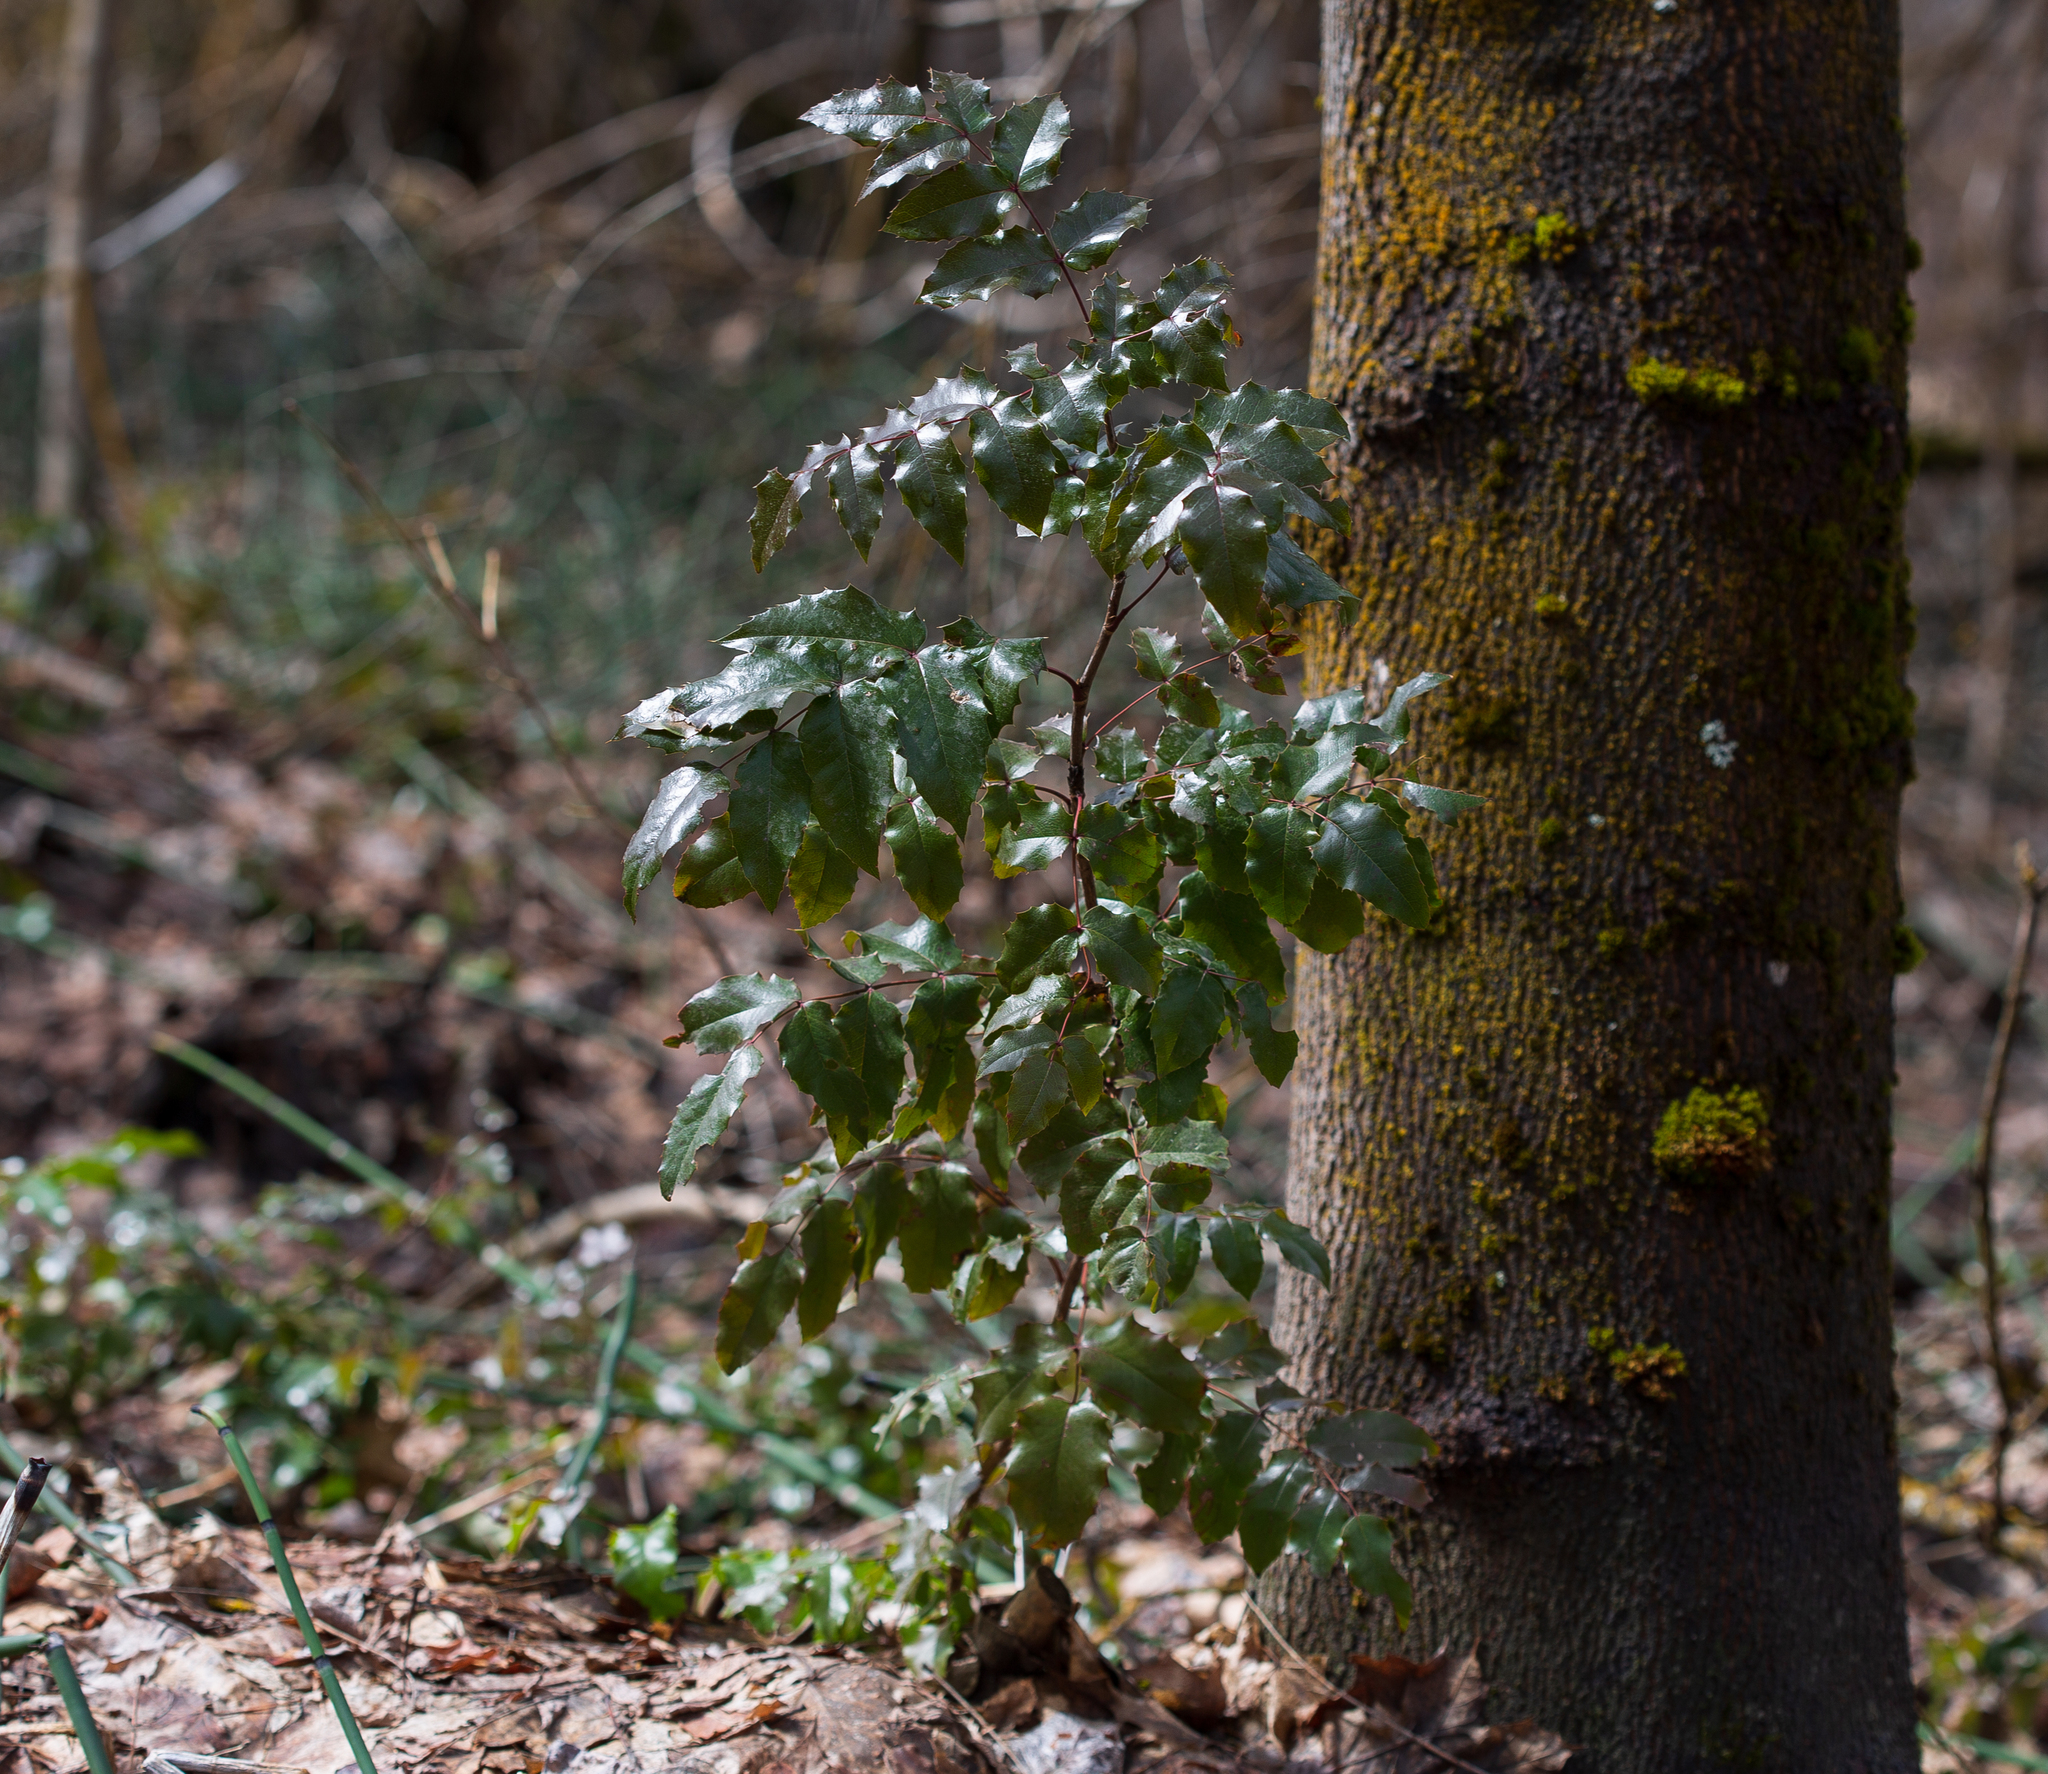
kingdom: Plantae
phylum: Tracheophyta
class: Magnoliopsida
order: Ranunculales
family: Berberidaceae
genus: Mahonia
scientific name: Mahonia aquifolium
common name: Oregon-grape
